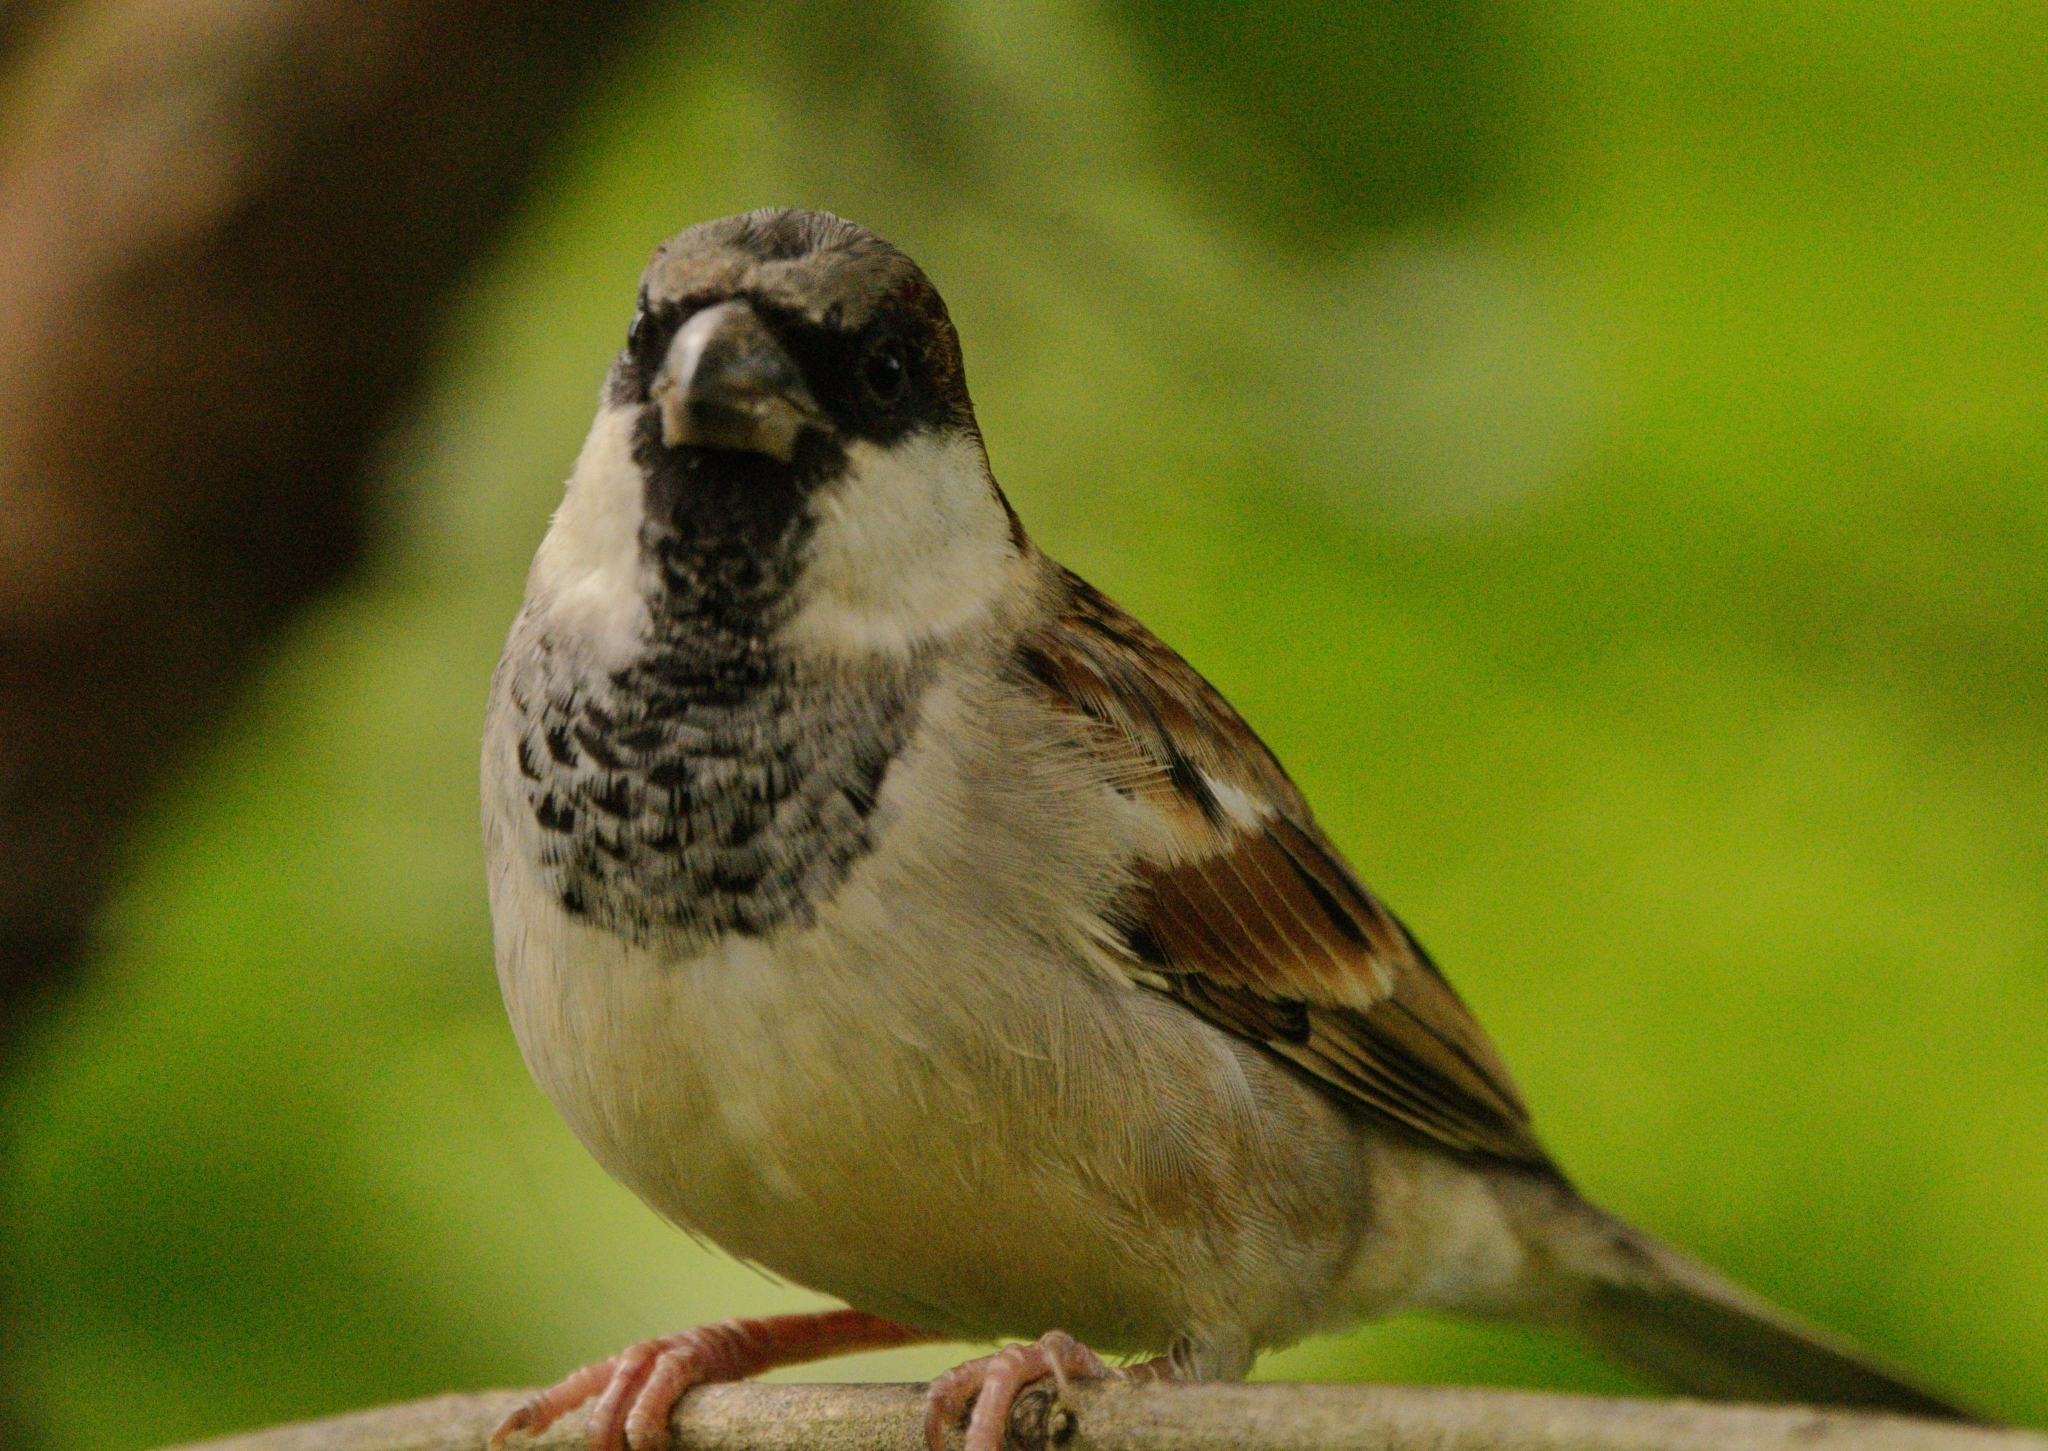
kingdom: Animalia
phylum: Chordata
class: Aves
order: Passeriformes
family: Passeridae
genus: Passer
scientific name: Passer domesticus
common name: House sparrow
